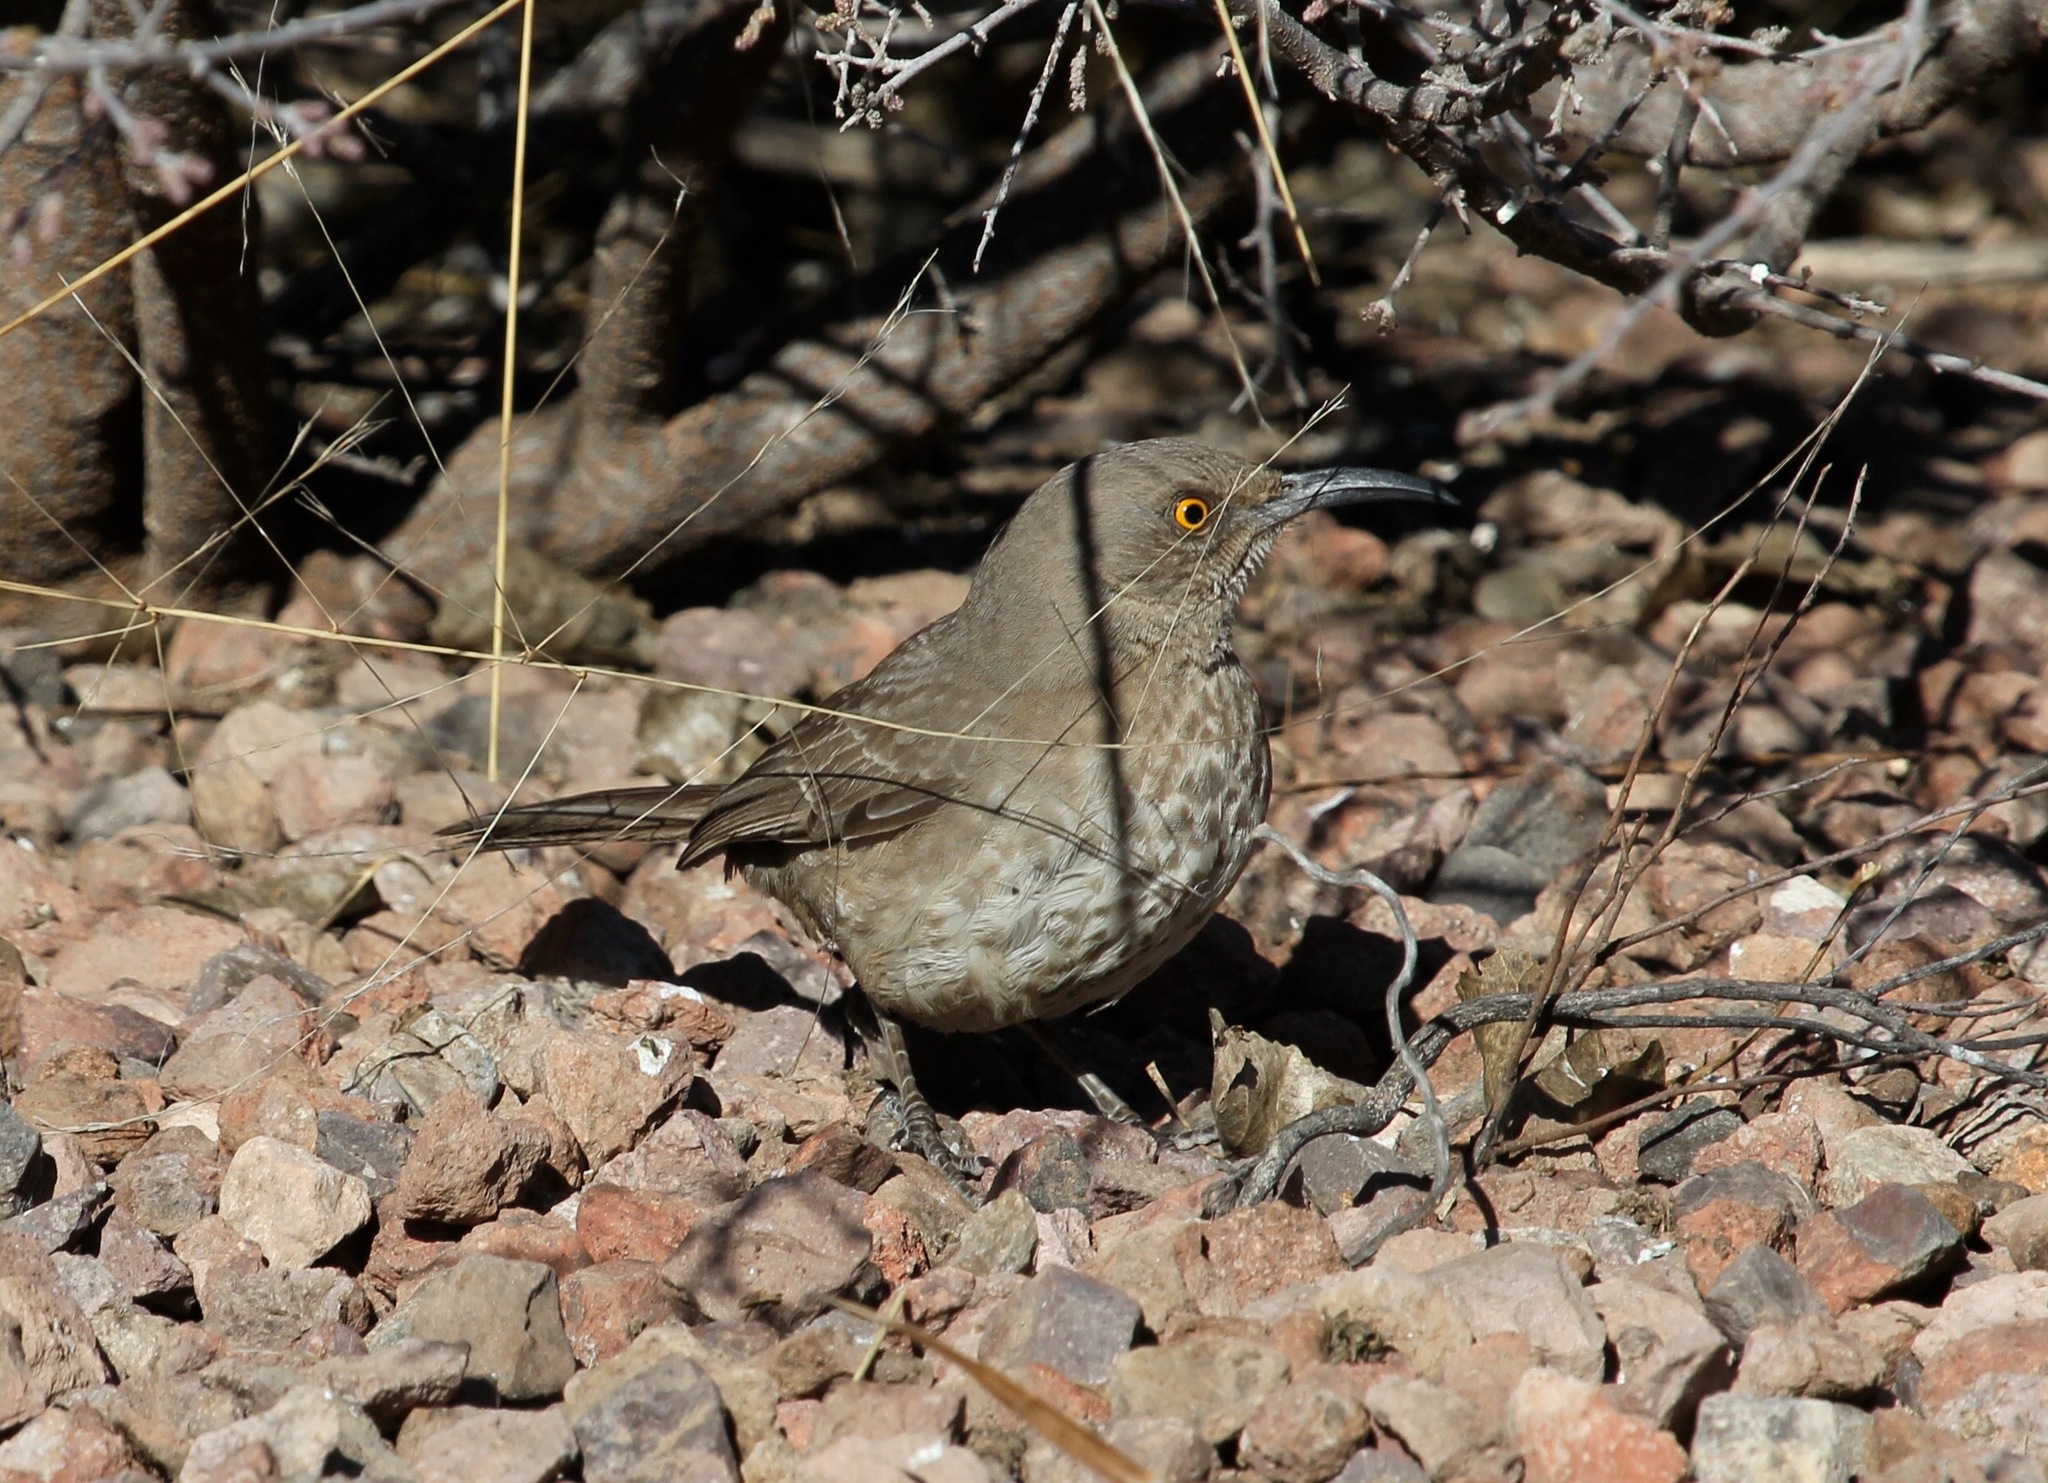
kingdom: Animalia
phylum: Chordata
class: Aves
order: Passeriformes
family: Mimidae
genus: Toxostoma
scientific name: Toxostoma curvirostre
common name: Curve-billed thrasher
